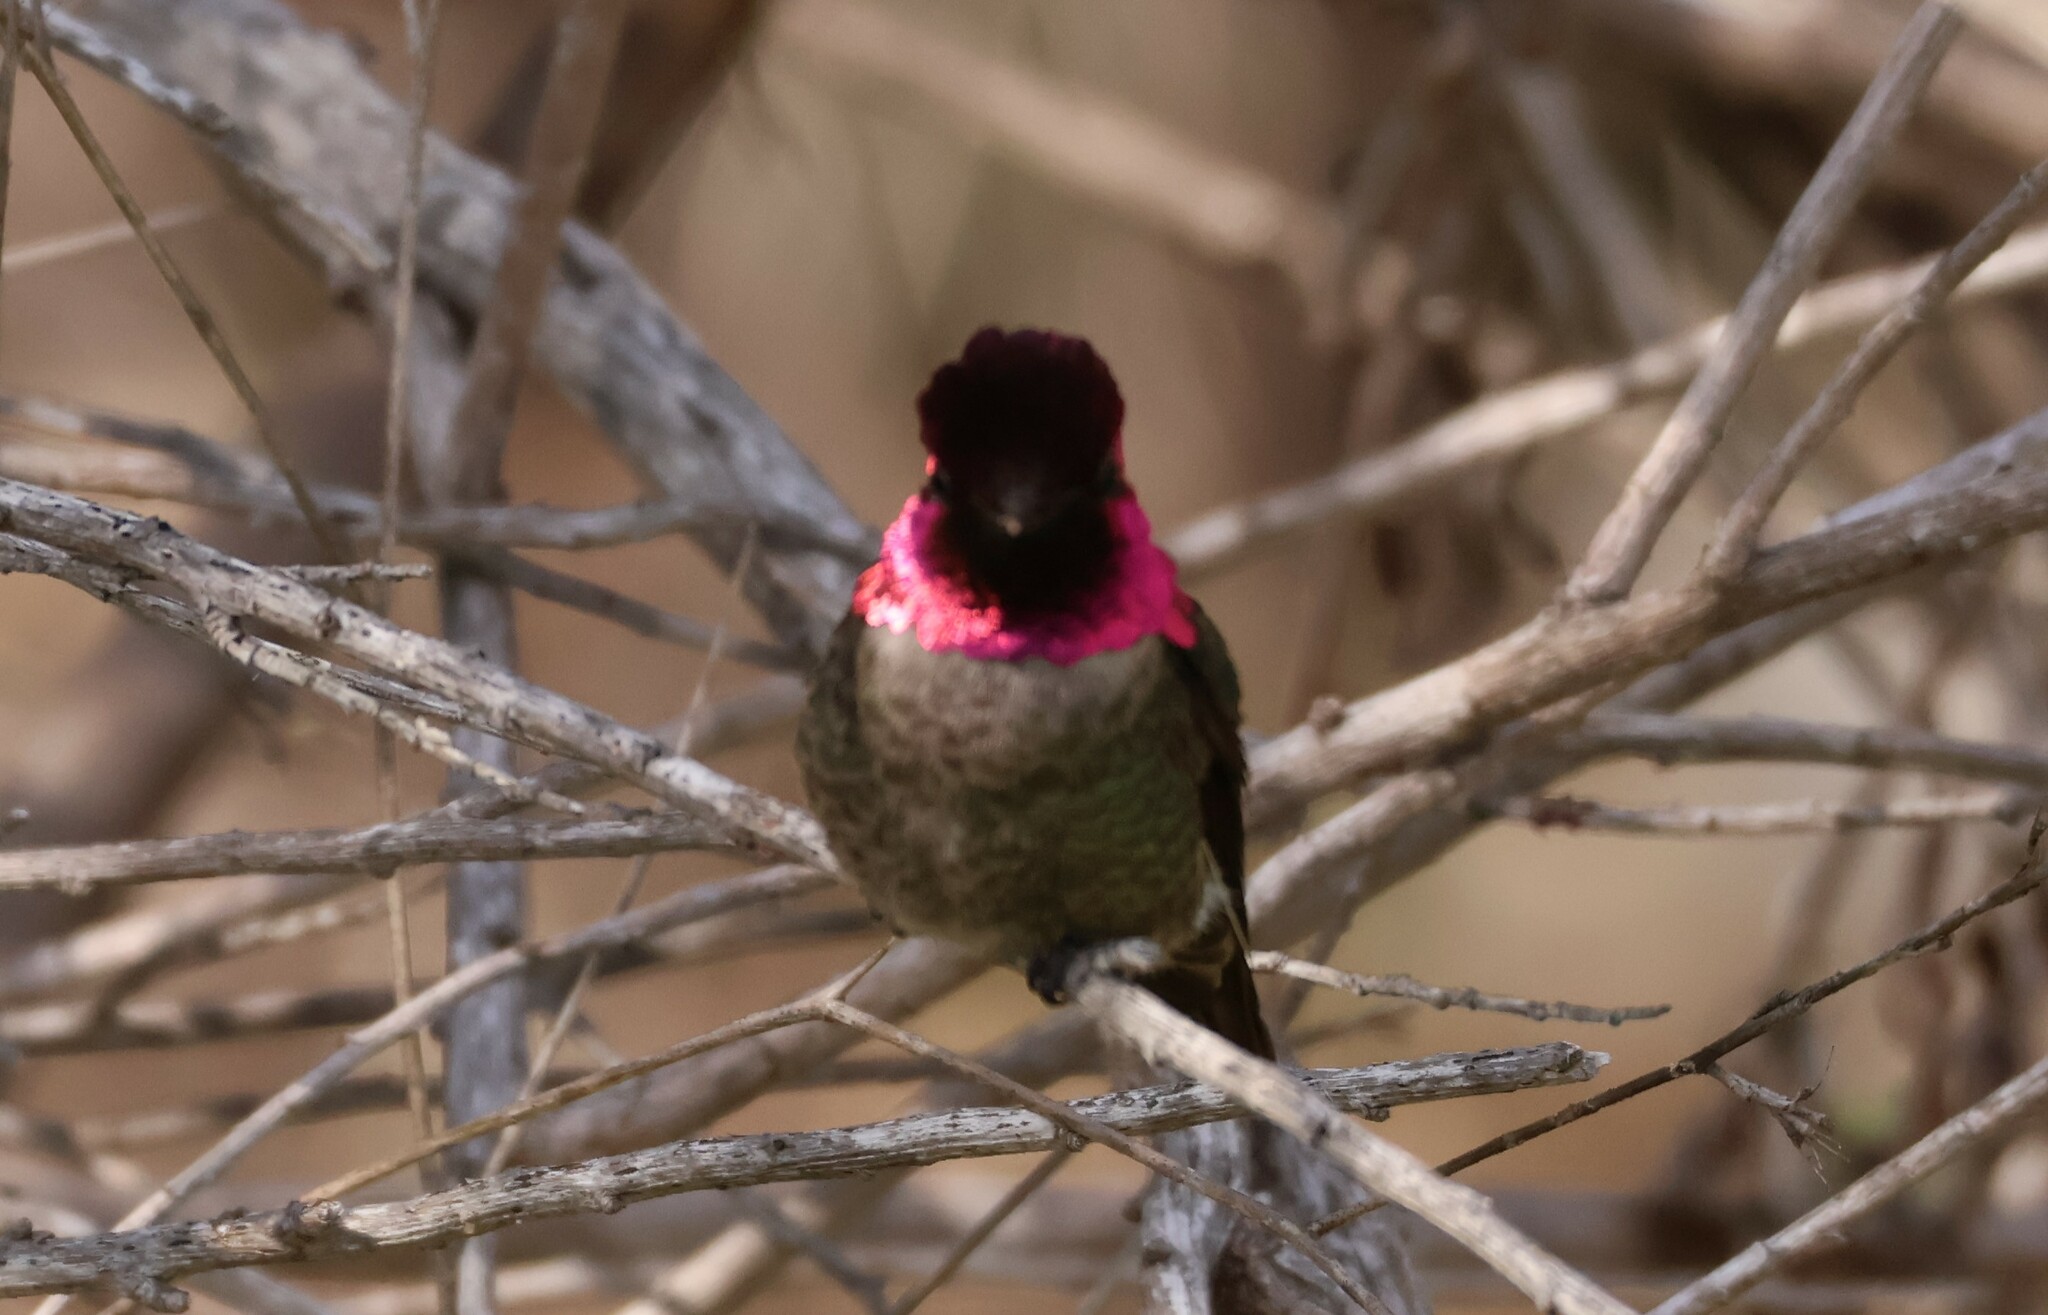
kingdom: Animalia
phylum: Chordata
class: Aves
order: Apodiformes
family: Trochilidae
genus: Calypte
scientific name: Calypte anna
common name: Anna's hummingbird
